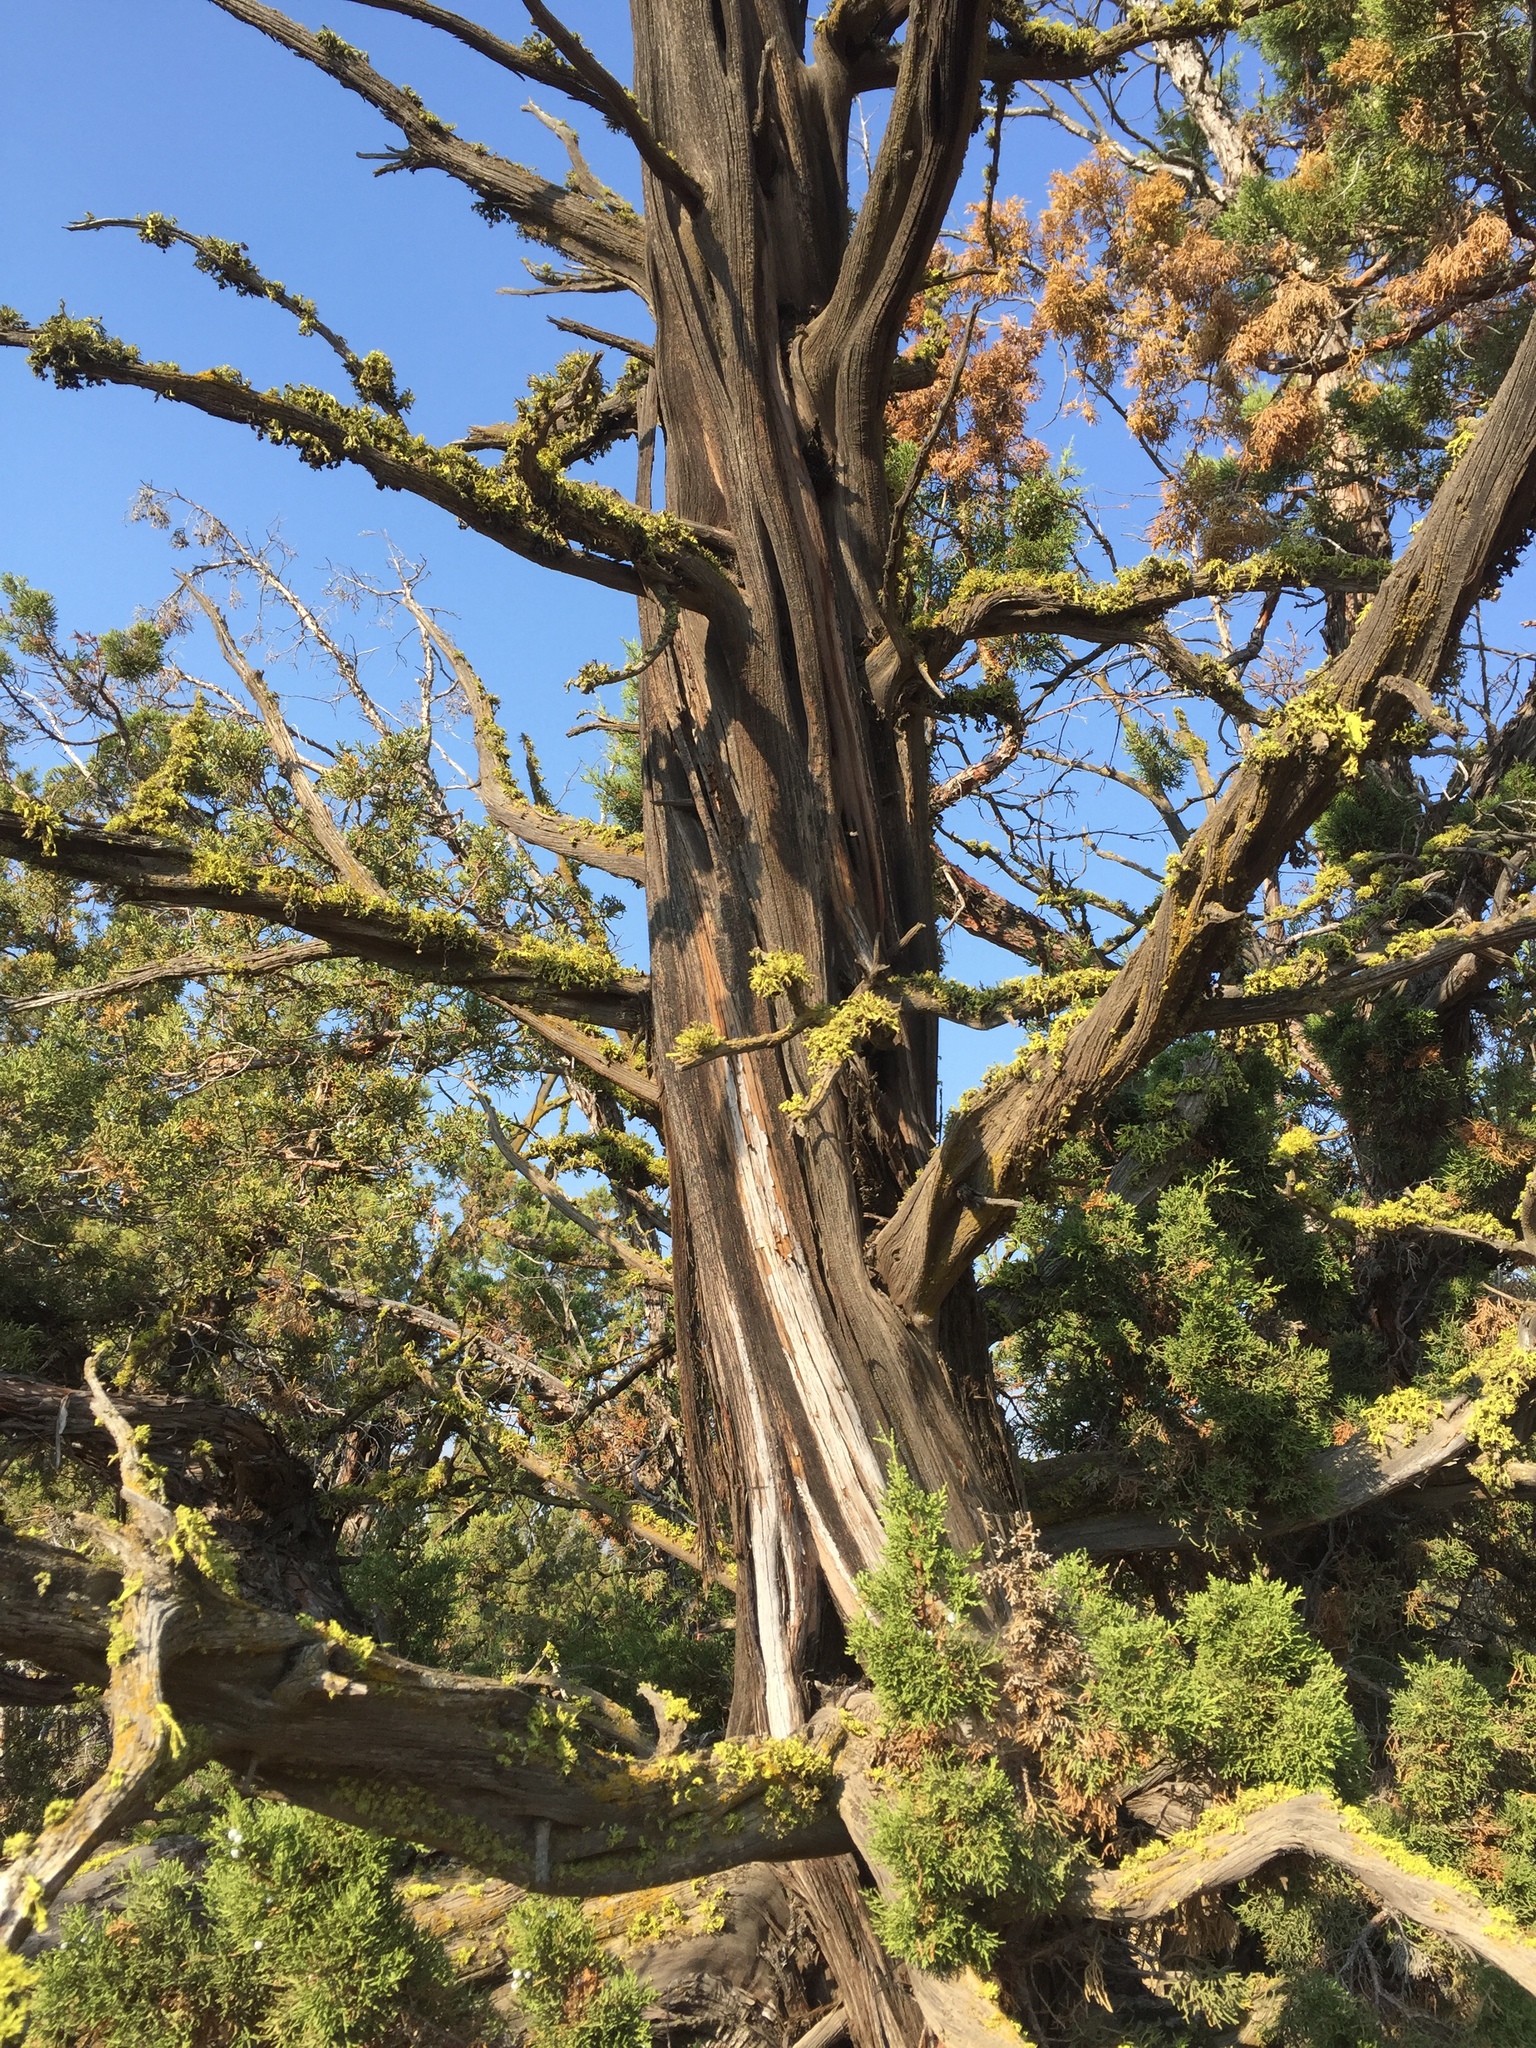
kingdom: Plantae
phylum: Tracheophyta
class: Pinopsida
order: Pinales
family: Cupressaceae
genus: Juniperus
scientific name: Juniperus occidentalis
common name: Western juniper
